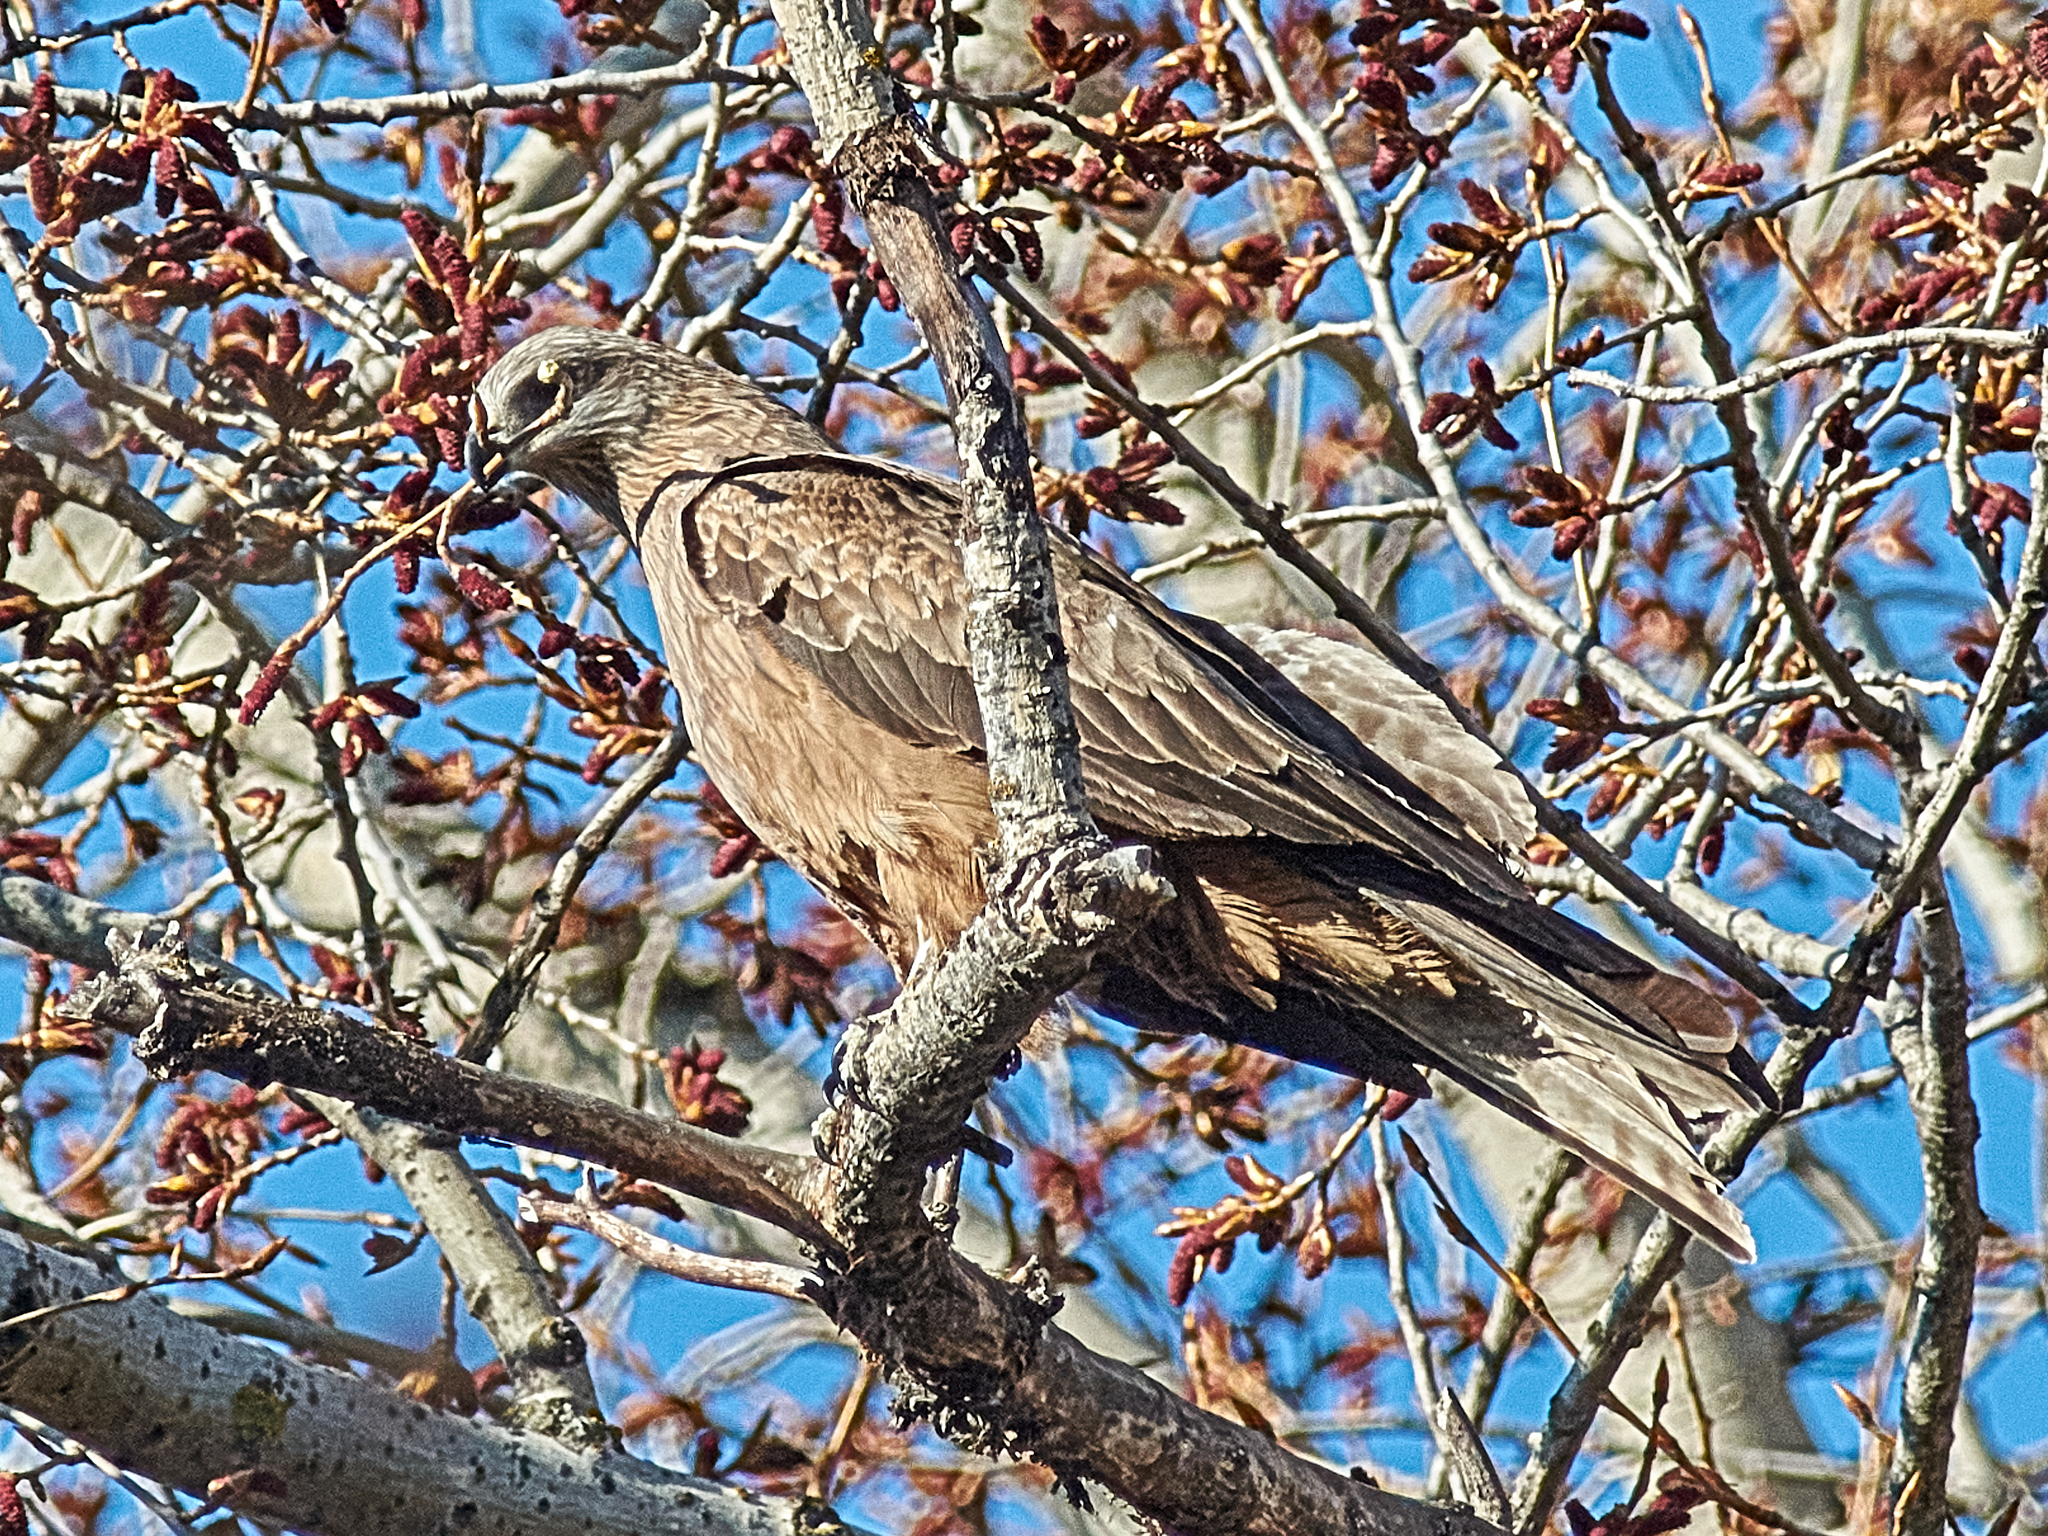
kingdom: Animalia
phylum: Chordata
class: Aves
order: Accipitriformes
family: Accipitridae
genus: Milvus
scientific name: Milvus migrans
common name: Black kite
